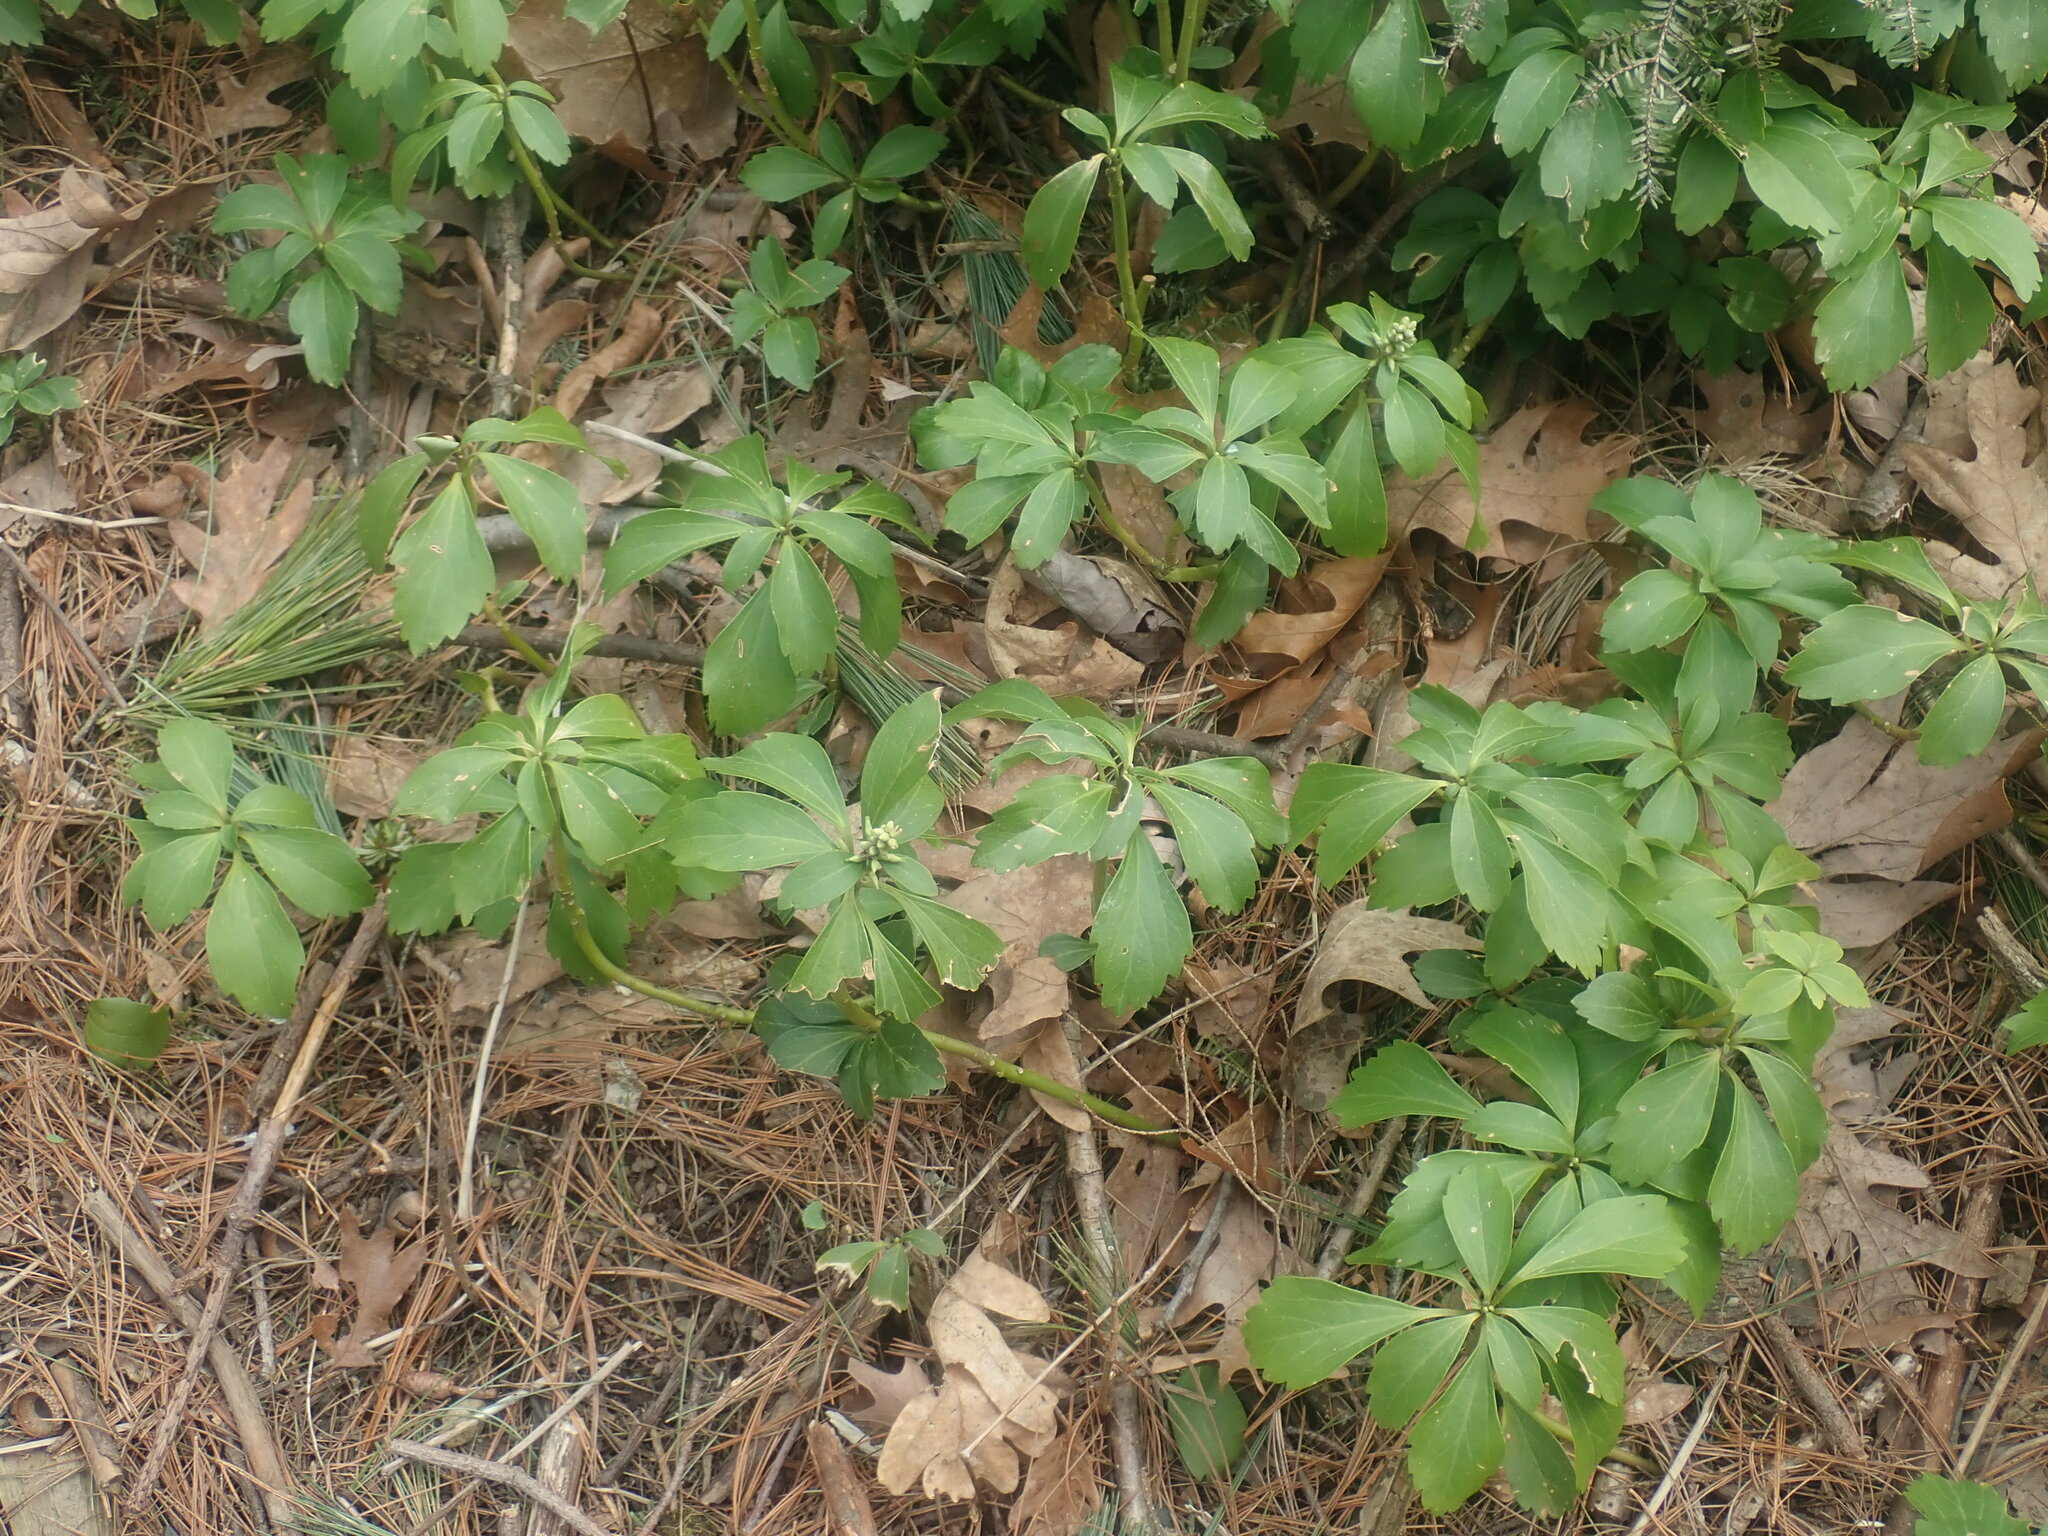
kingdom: Plantae
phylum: Tracheophyta
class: Magnoliopsida
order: Buxales
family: Buxaceae
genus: Pachysandra
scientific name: Pachysandra terminalis
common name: Japanese pachysandra
